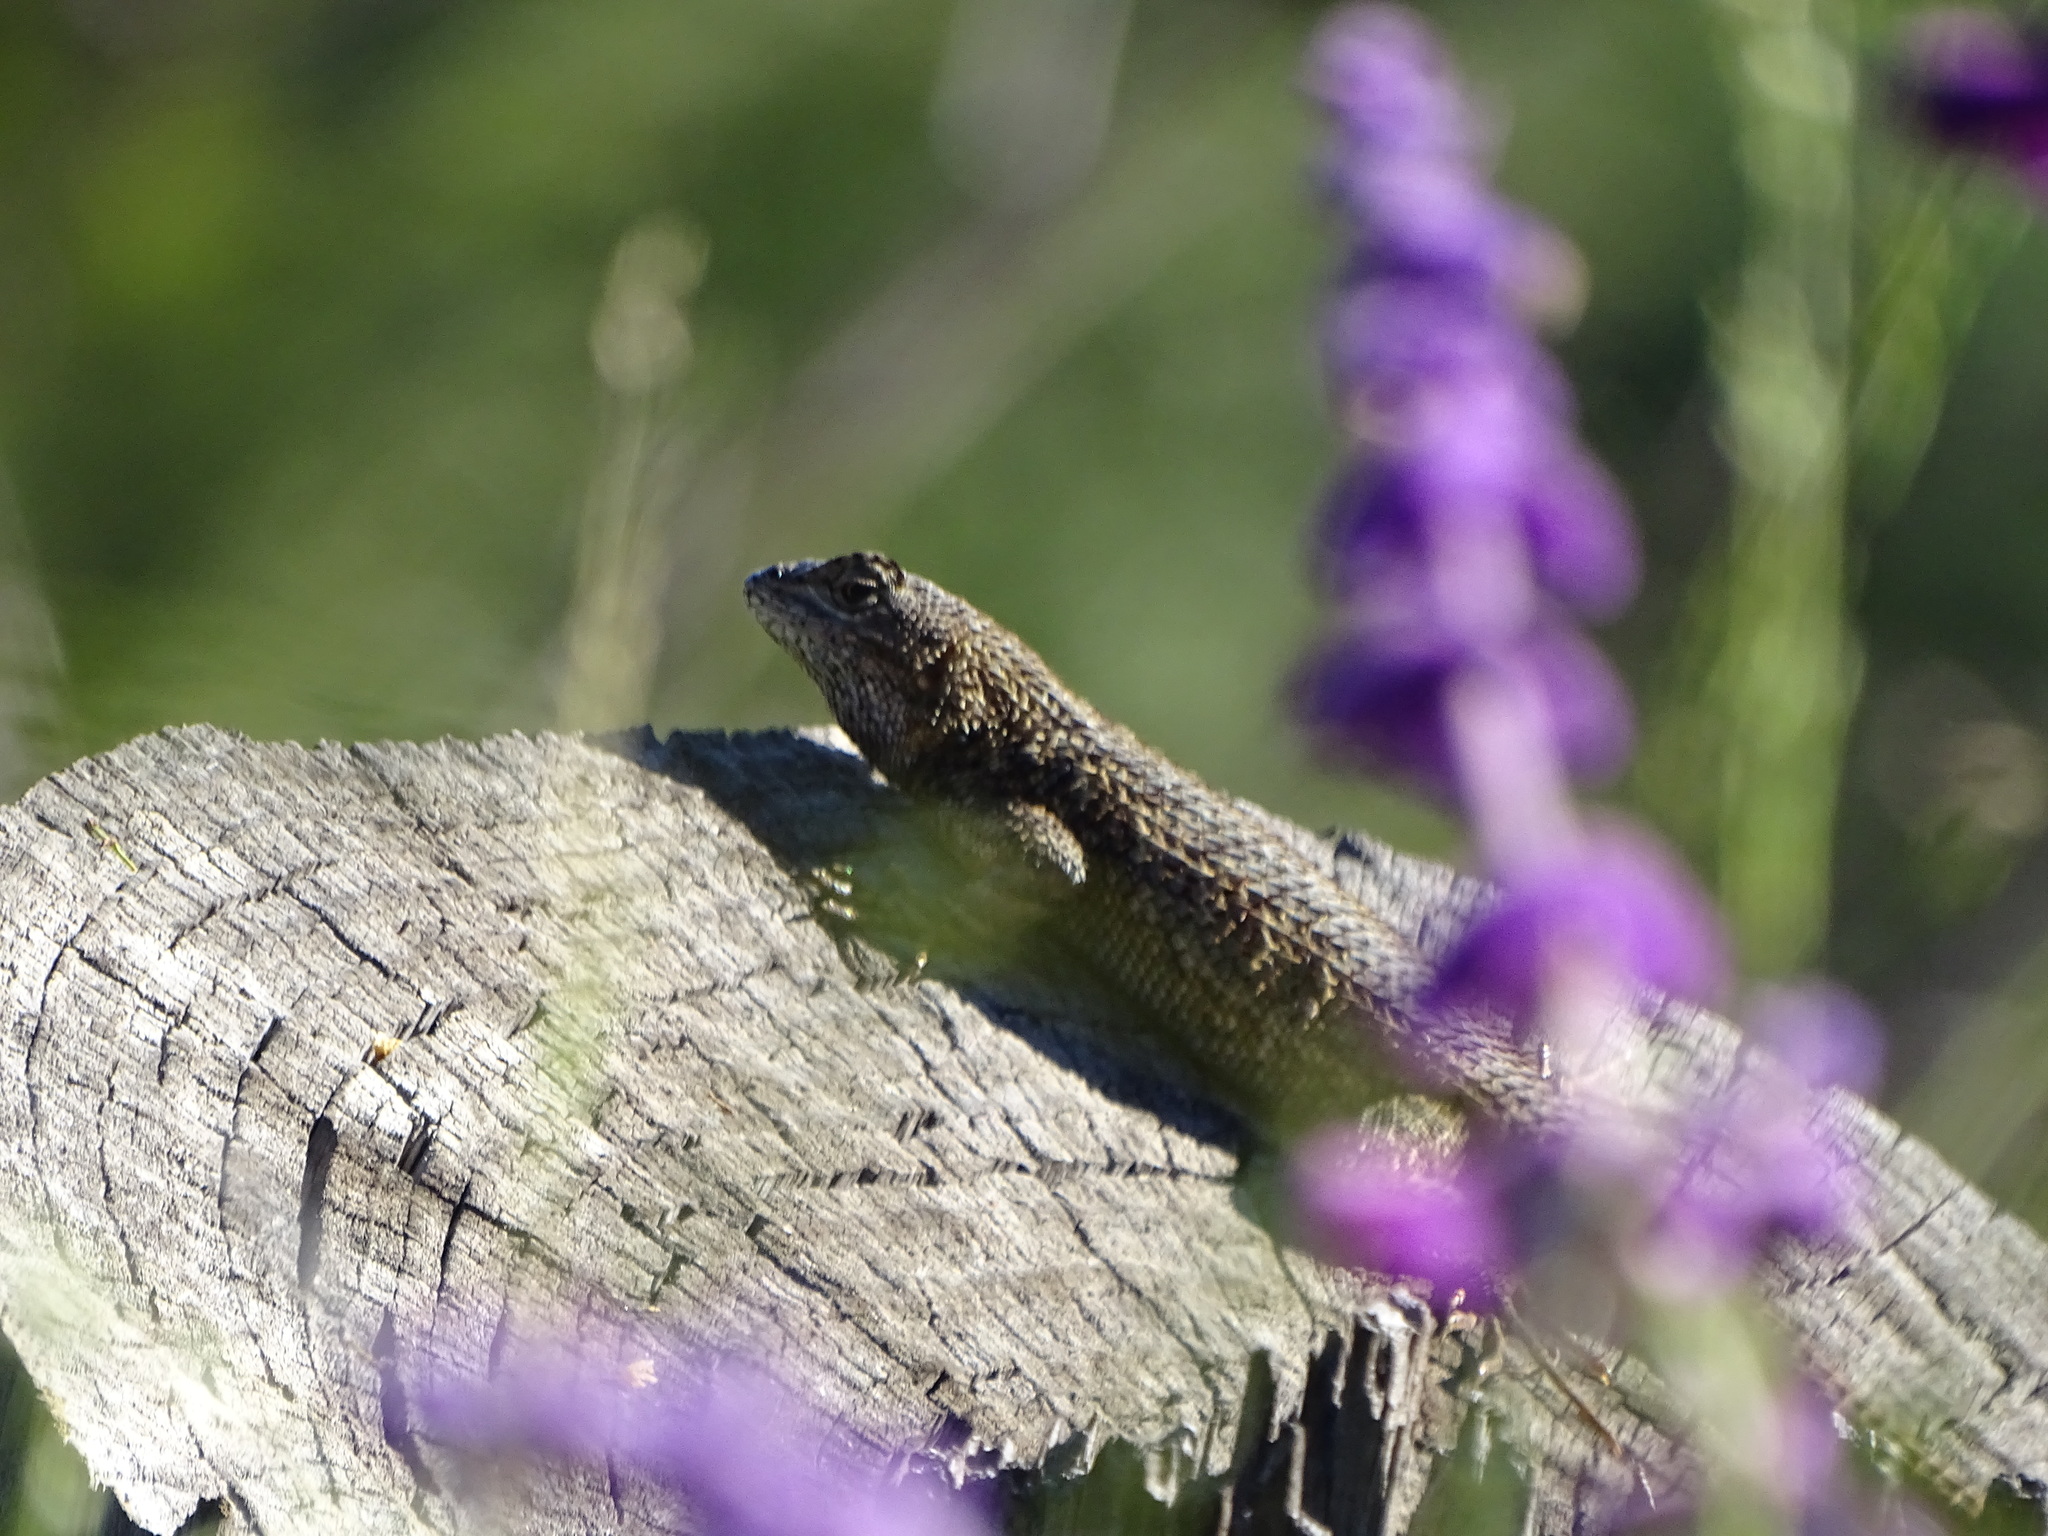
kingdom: Animalia
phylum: Chordata
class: Squamata
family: Phrynosomatidae
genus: Sceloporus
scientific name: Sceloporus occidentalis
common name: Western fence lizard
